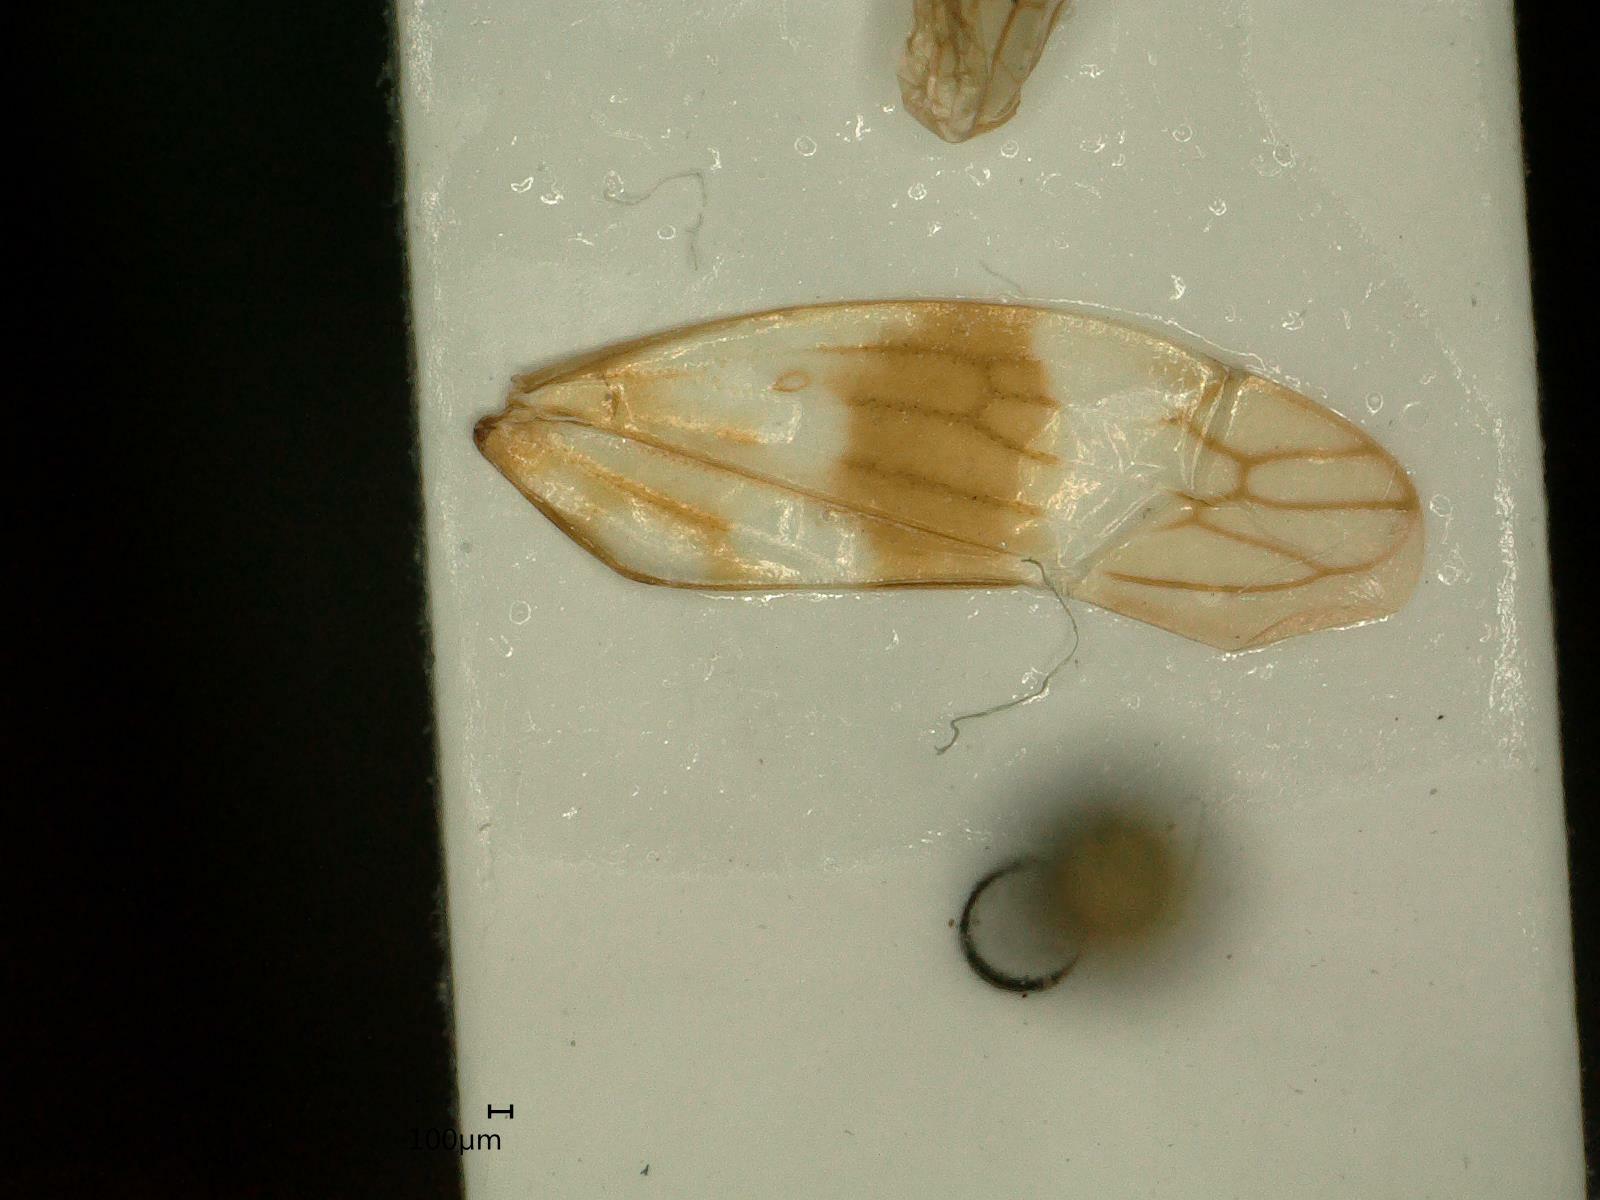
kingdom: Animalia
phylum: Arthropoda
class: Insecta
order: Hemiptera
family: Cicadellidae
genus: Tremulicerus
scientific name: Tremulicerus tremulae
